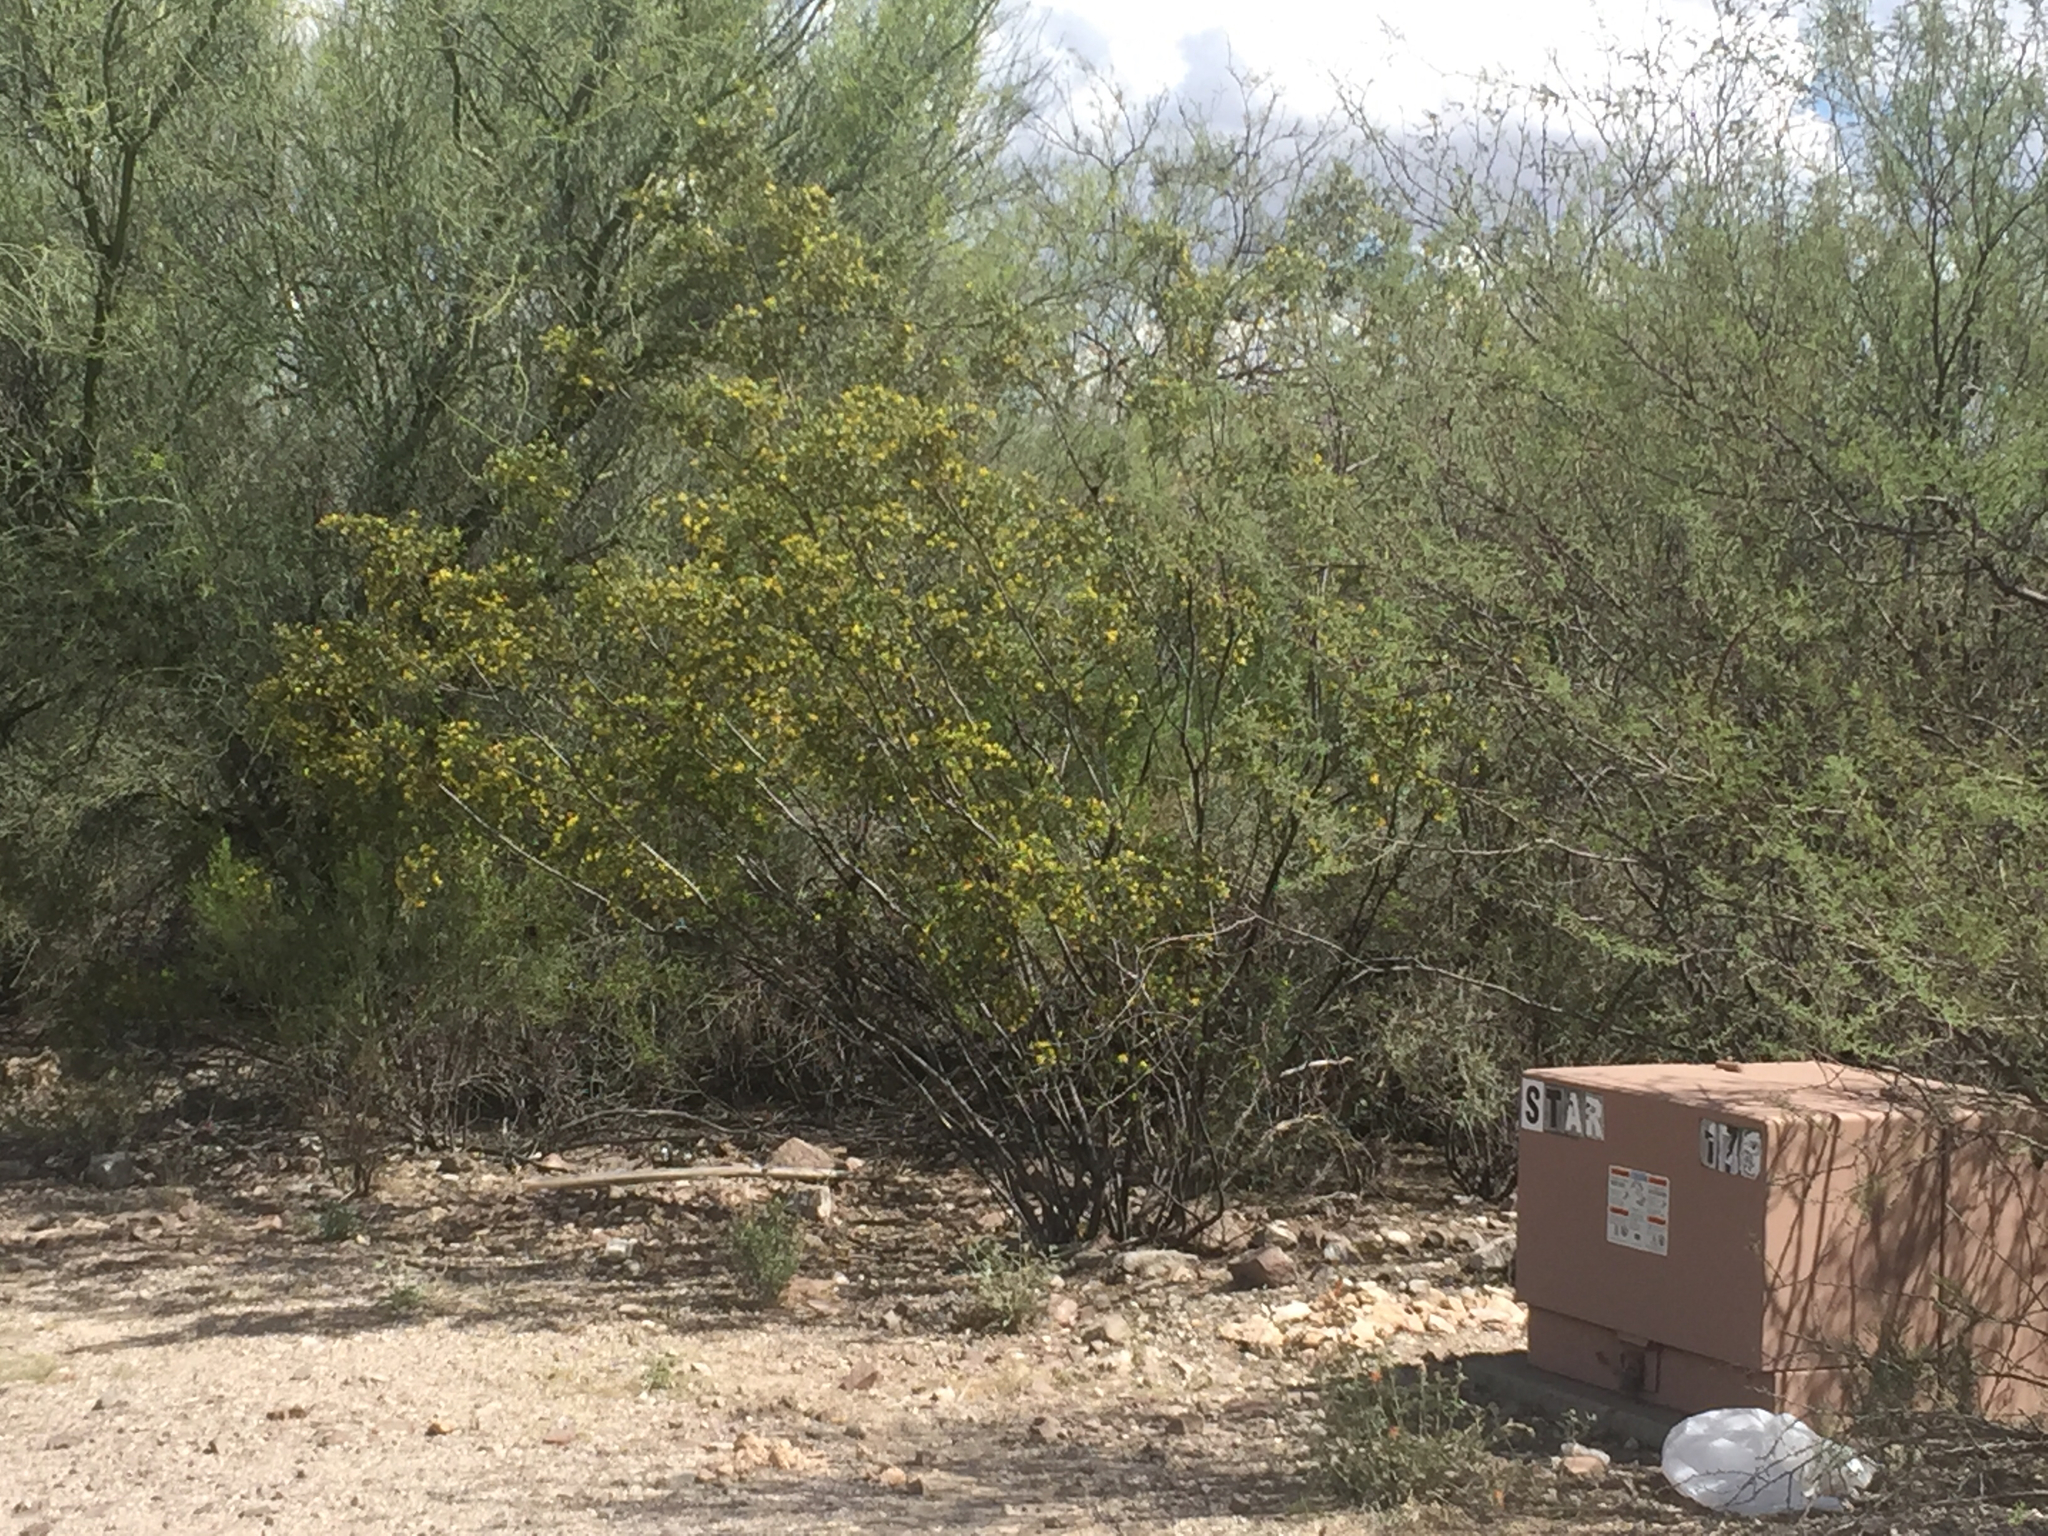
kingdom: Plantae
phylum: Tracheophyta
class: Magnoliopsida
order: Zygophyllales
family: Zygophyllaceae
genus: Larrea
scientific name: Larrea tridentata
